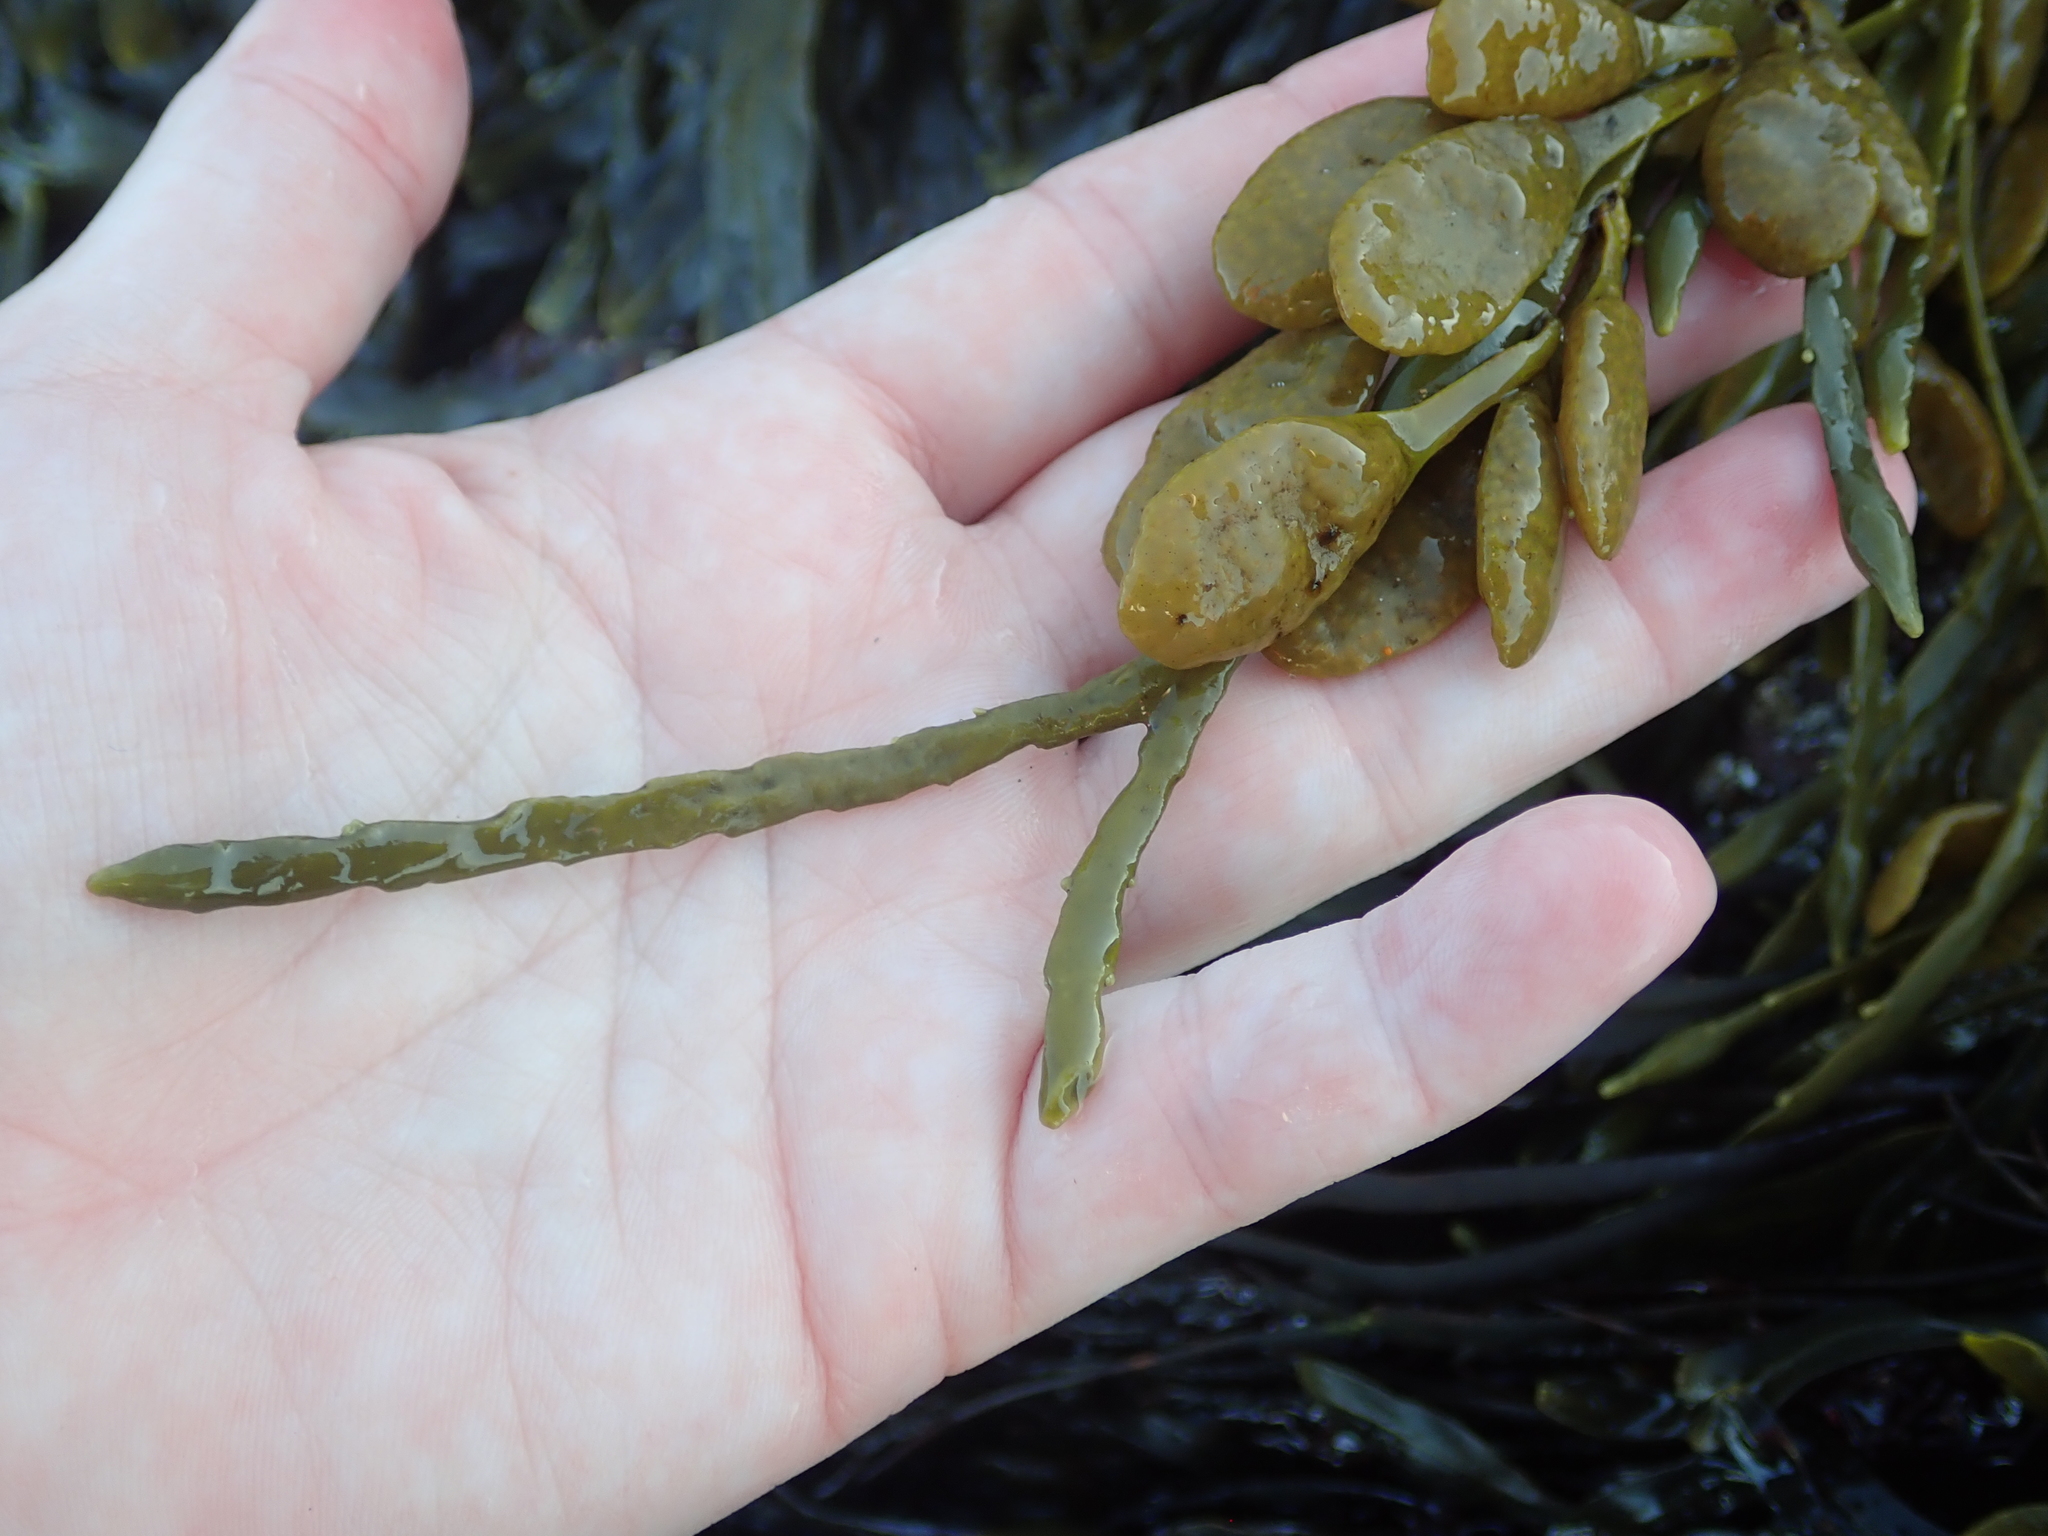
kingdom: Chromista
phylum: Ochrophyta
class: Phaeophyceae
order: Fucales
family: Fucaceae
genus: Ascophyllum
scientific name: Ascophyllum nodosum
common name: Knotted wrack
